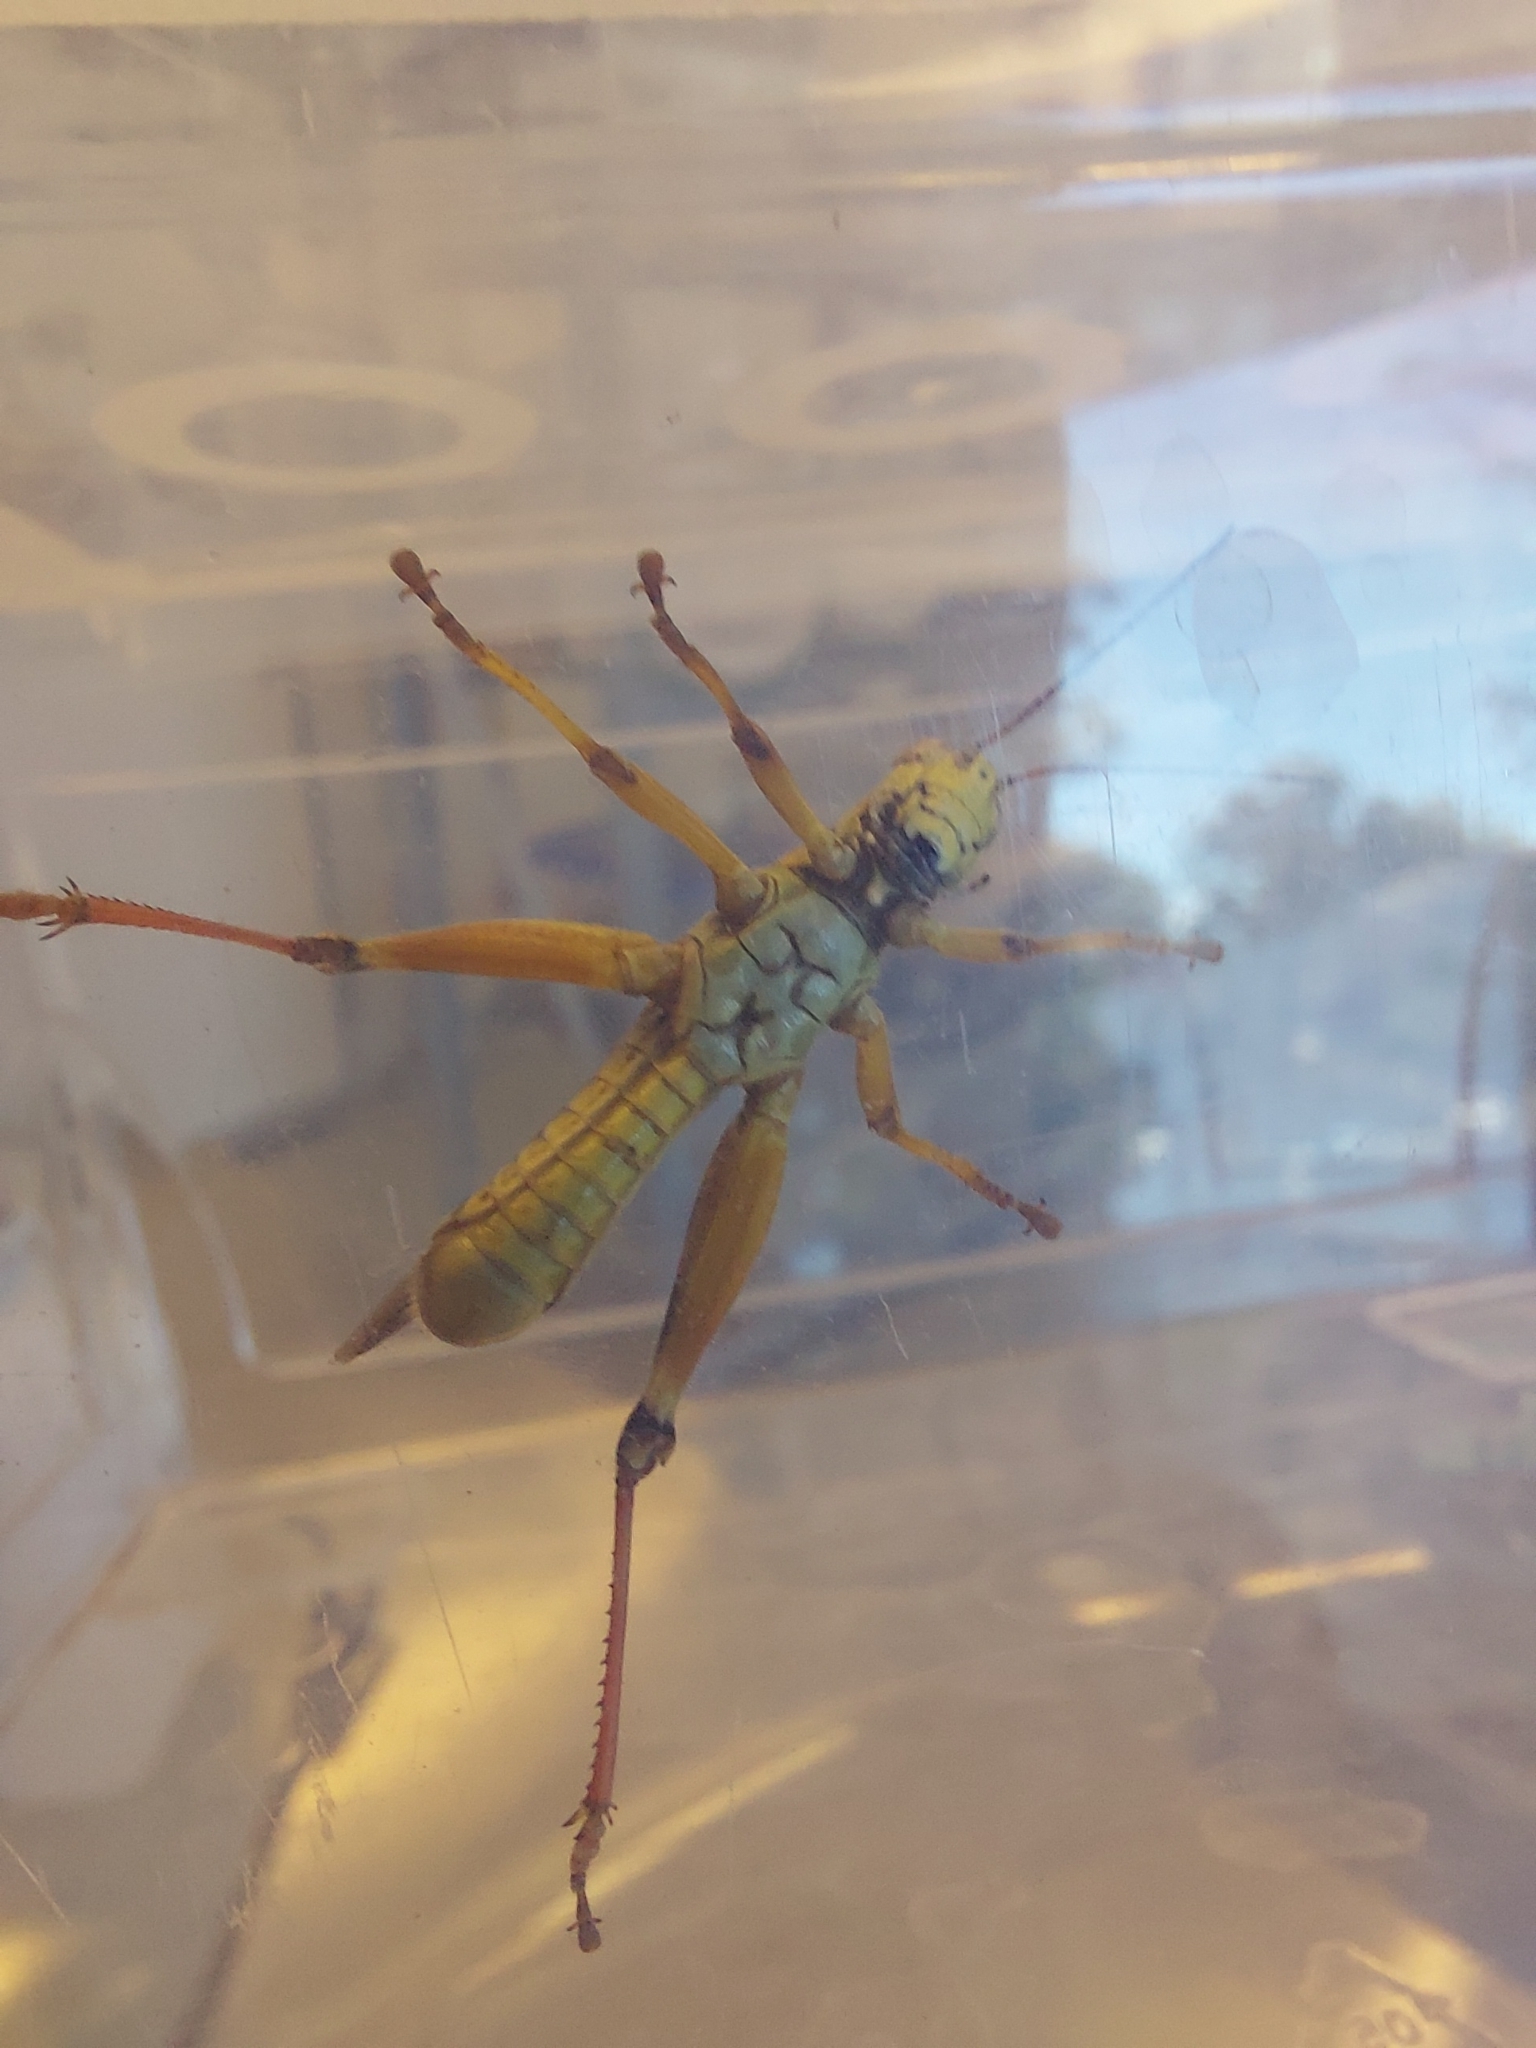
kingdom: Animalia
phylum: Arthropoda
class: Insecta
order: Orthoptera
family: Acrididae
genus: Melanoplus
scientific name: Melanoplus femurrubrum
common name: Red-legged grasshopper
